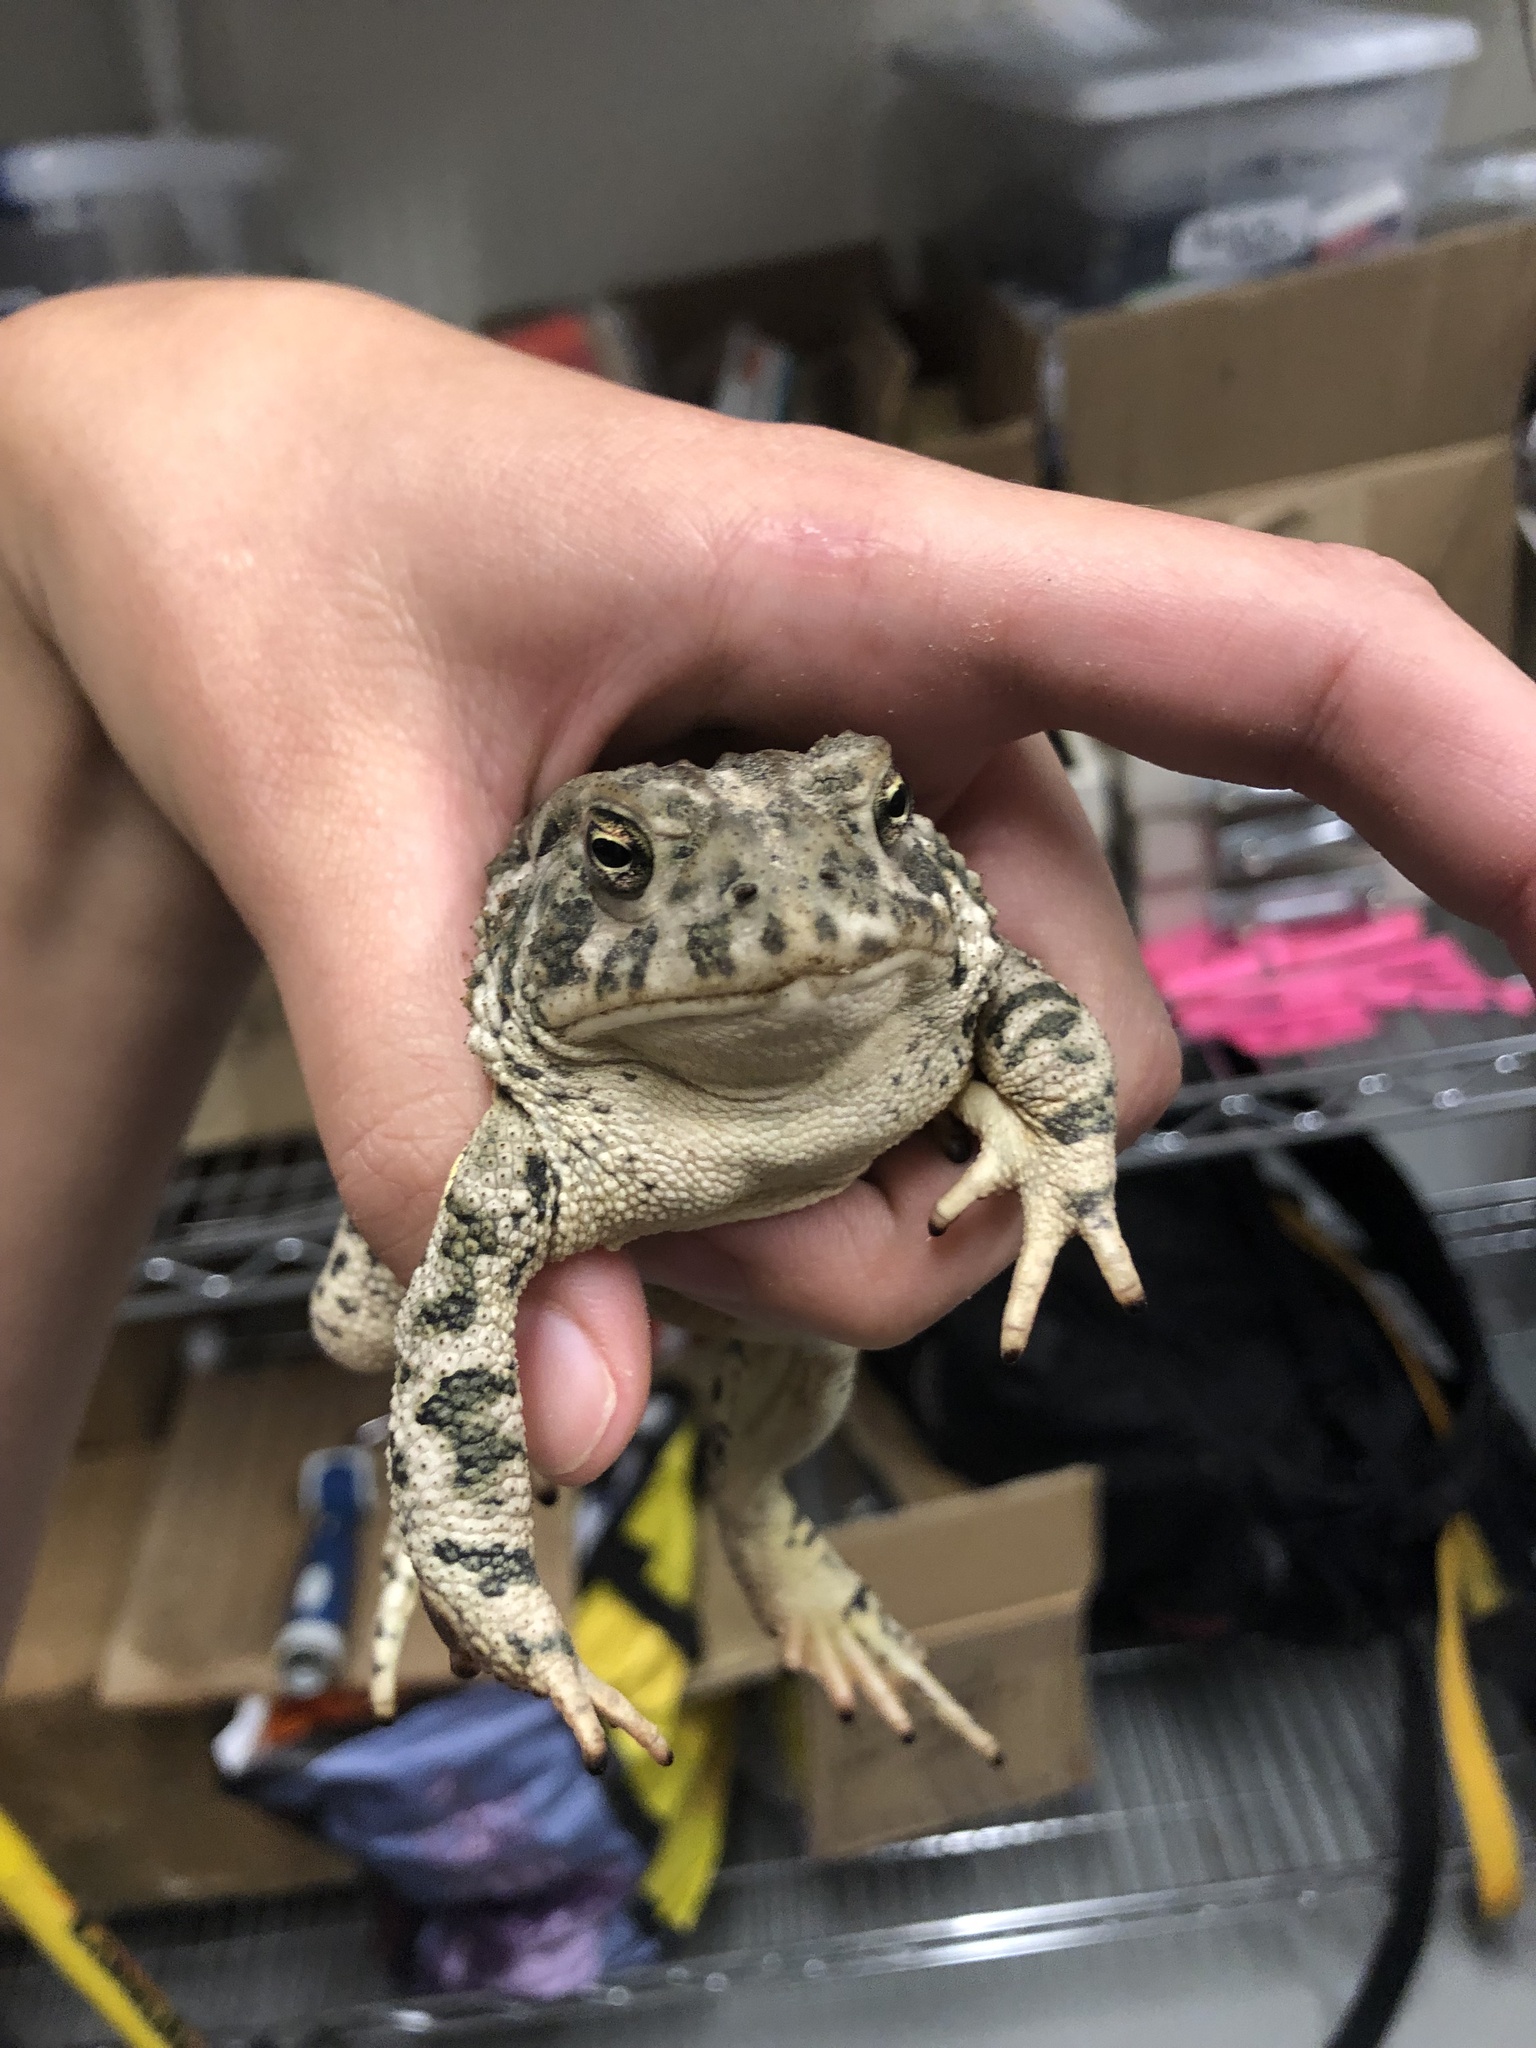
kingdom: Animalia
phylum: Chordata
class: Amphibia
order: Anura
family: Bufonidae
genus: Anaxyrus
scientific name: Anaxyrus woodhousii
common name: Woodhouse's toad
